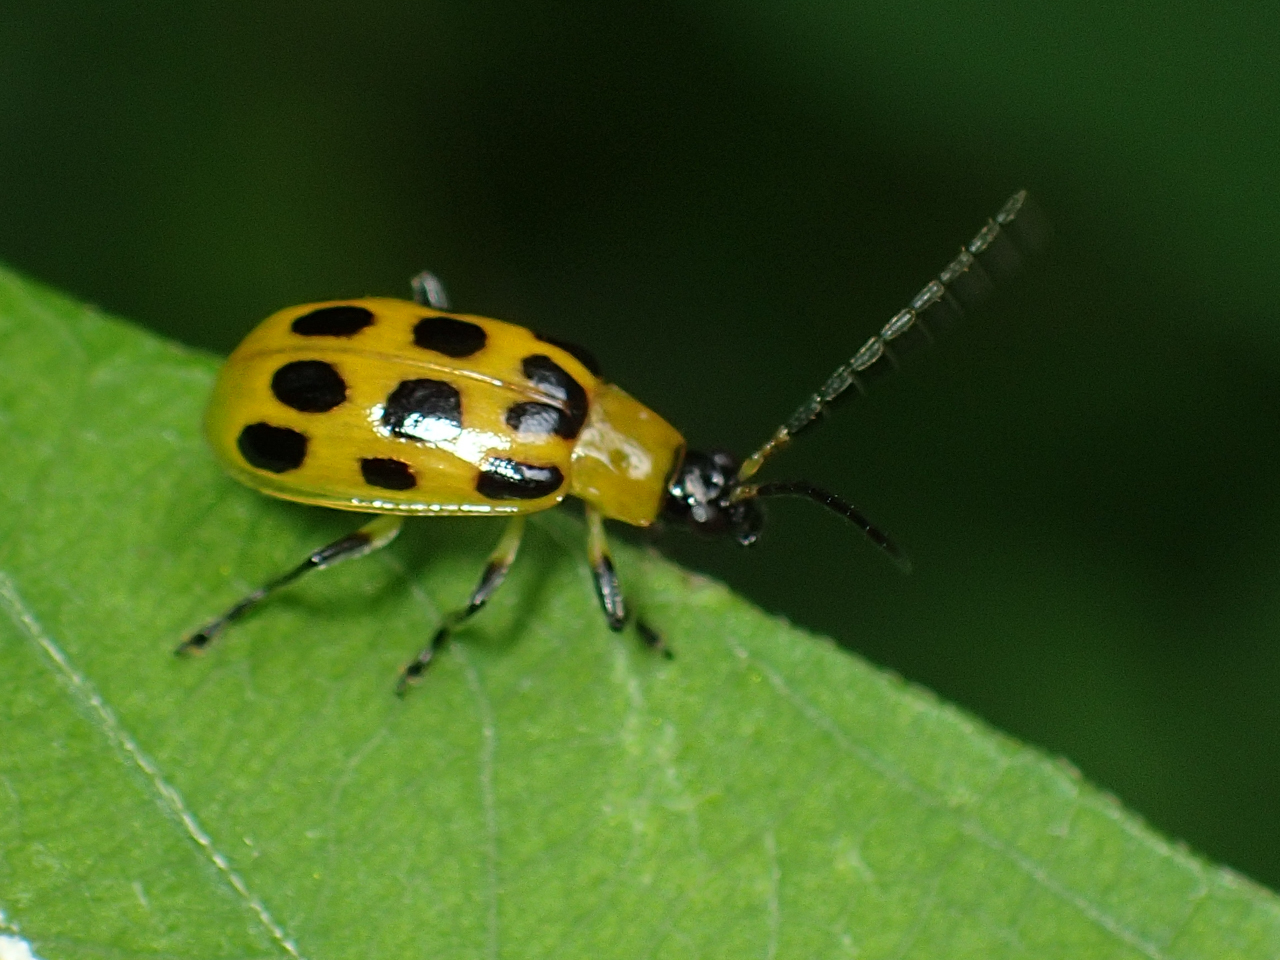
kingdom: Animalia
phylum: Arthropoda
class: Insecta
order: Coleoptera
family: Chrysomelidae
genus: Diabrotica
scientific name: Diabrotica undecimpunctata
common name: Spotted cucumber beetle
